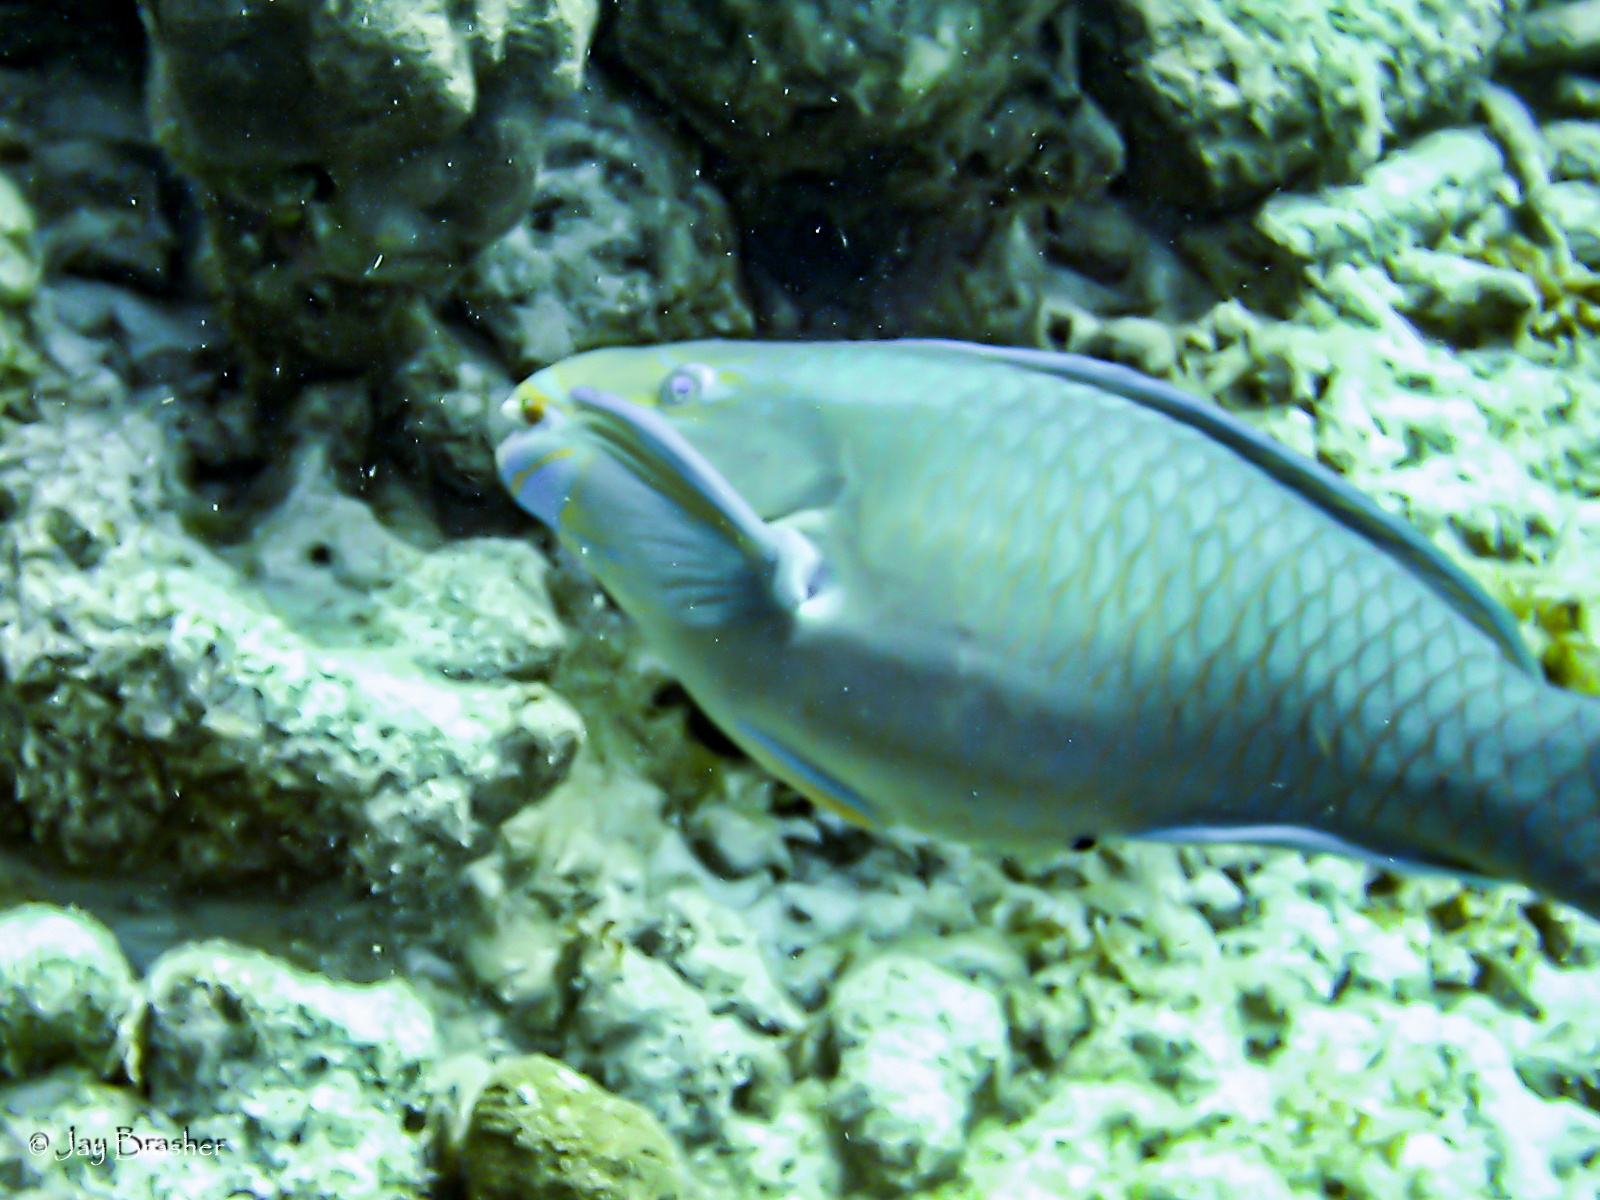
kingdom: Animalia
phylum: Chordata
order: Perciformes
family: Scaridae
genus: Scarus
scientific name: Scarus vetula
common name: Queen parrotfish
